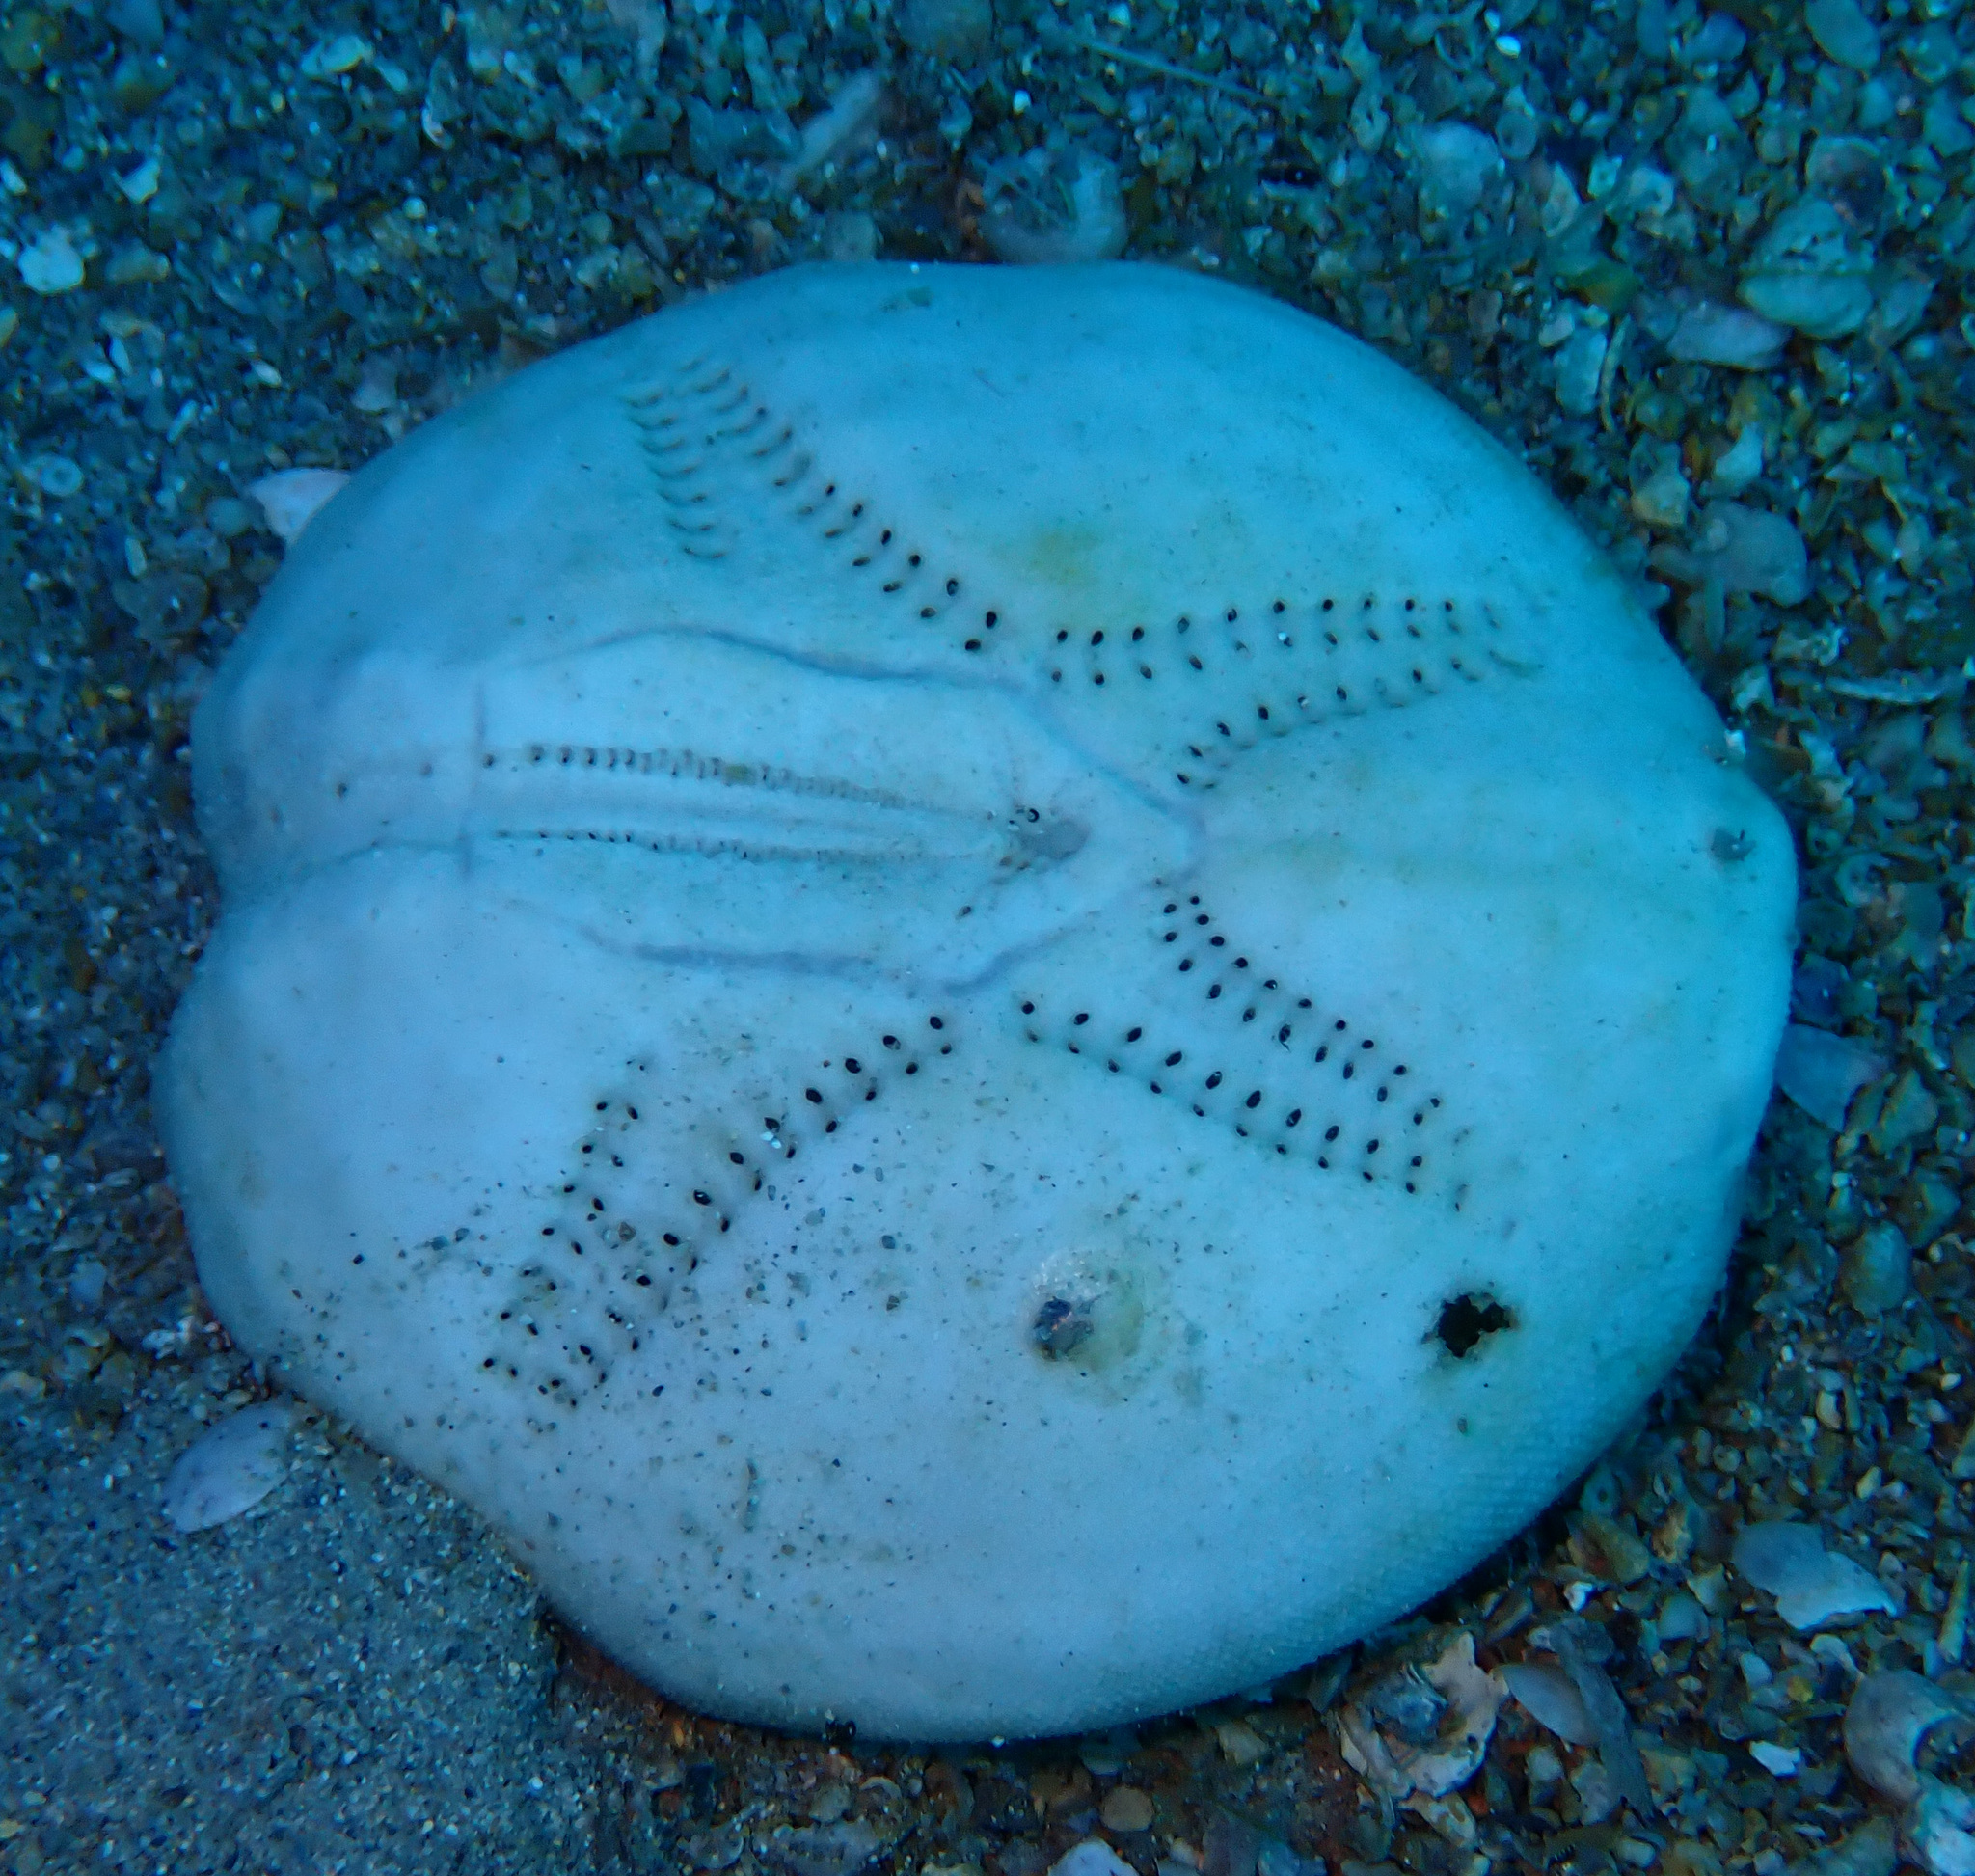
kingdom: Animalia
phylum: Echinodermata
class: Echinoidea
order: Spatangoida
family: Loveniidae
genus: Echinocardium
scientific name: Echinocardium fenauxi
